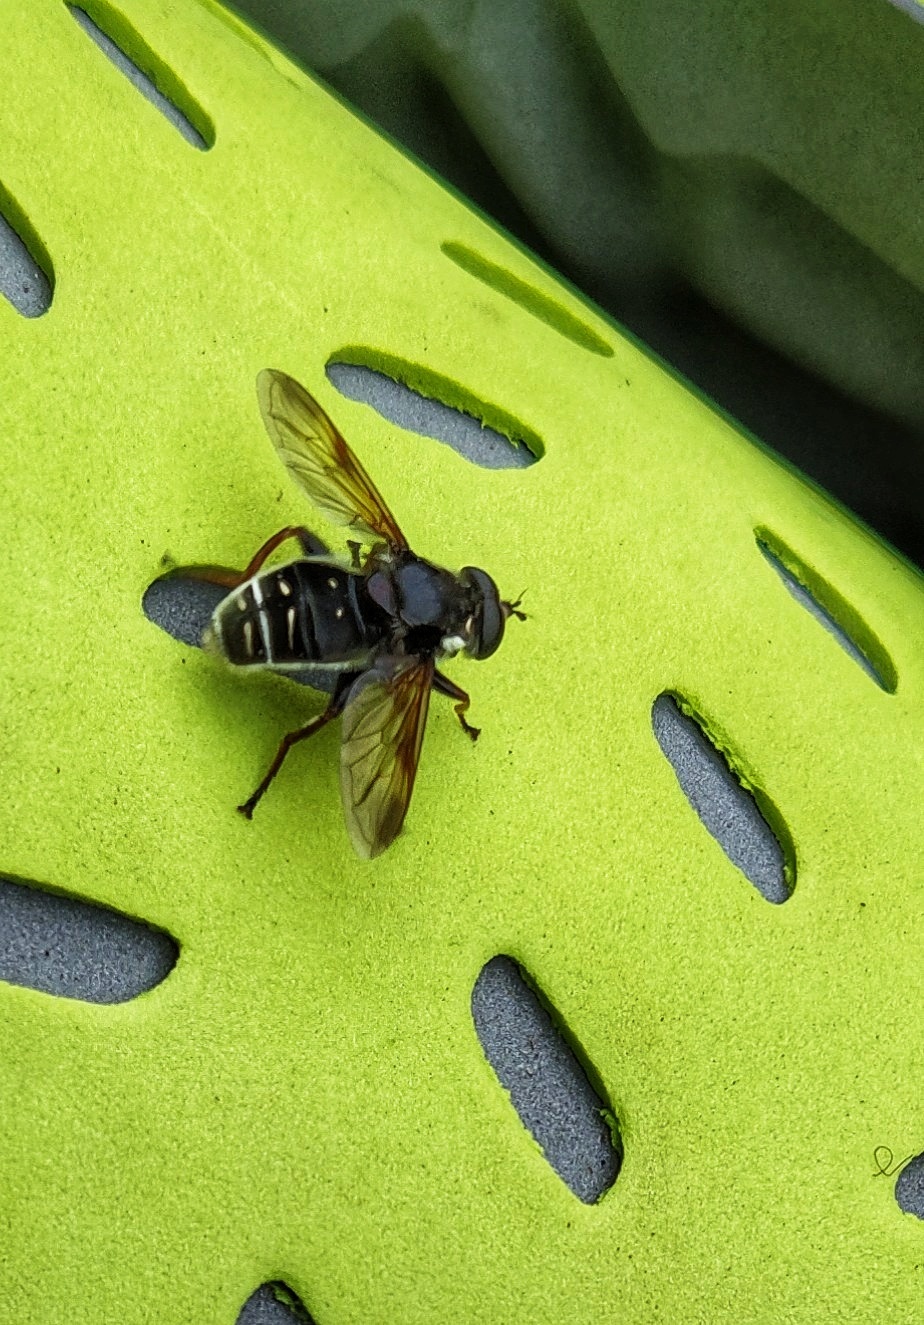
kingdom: Animalia
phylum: Arthropoda
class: Insecta
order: Diptera
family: Syrphidae
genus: Sericomyia
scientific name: Sericomyia militaris
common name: Narrow-banded pond fly
